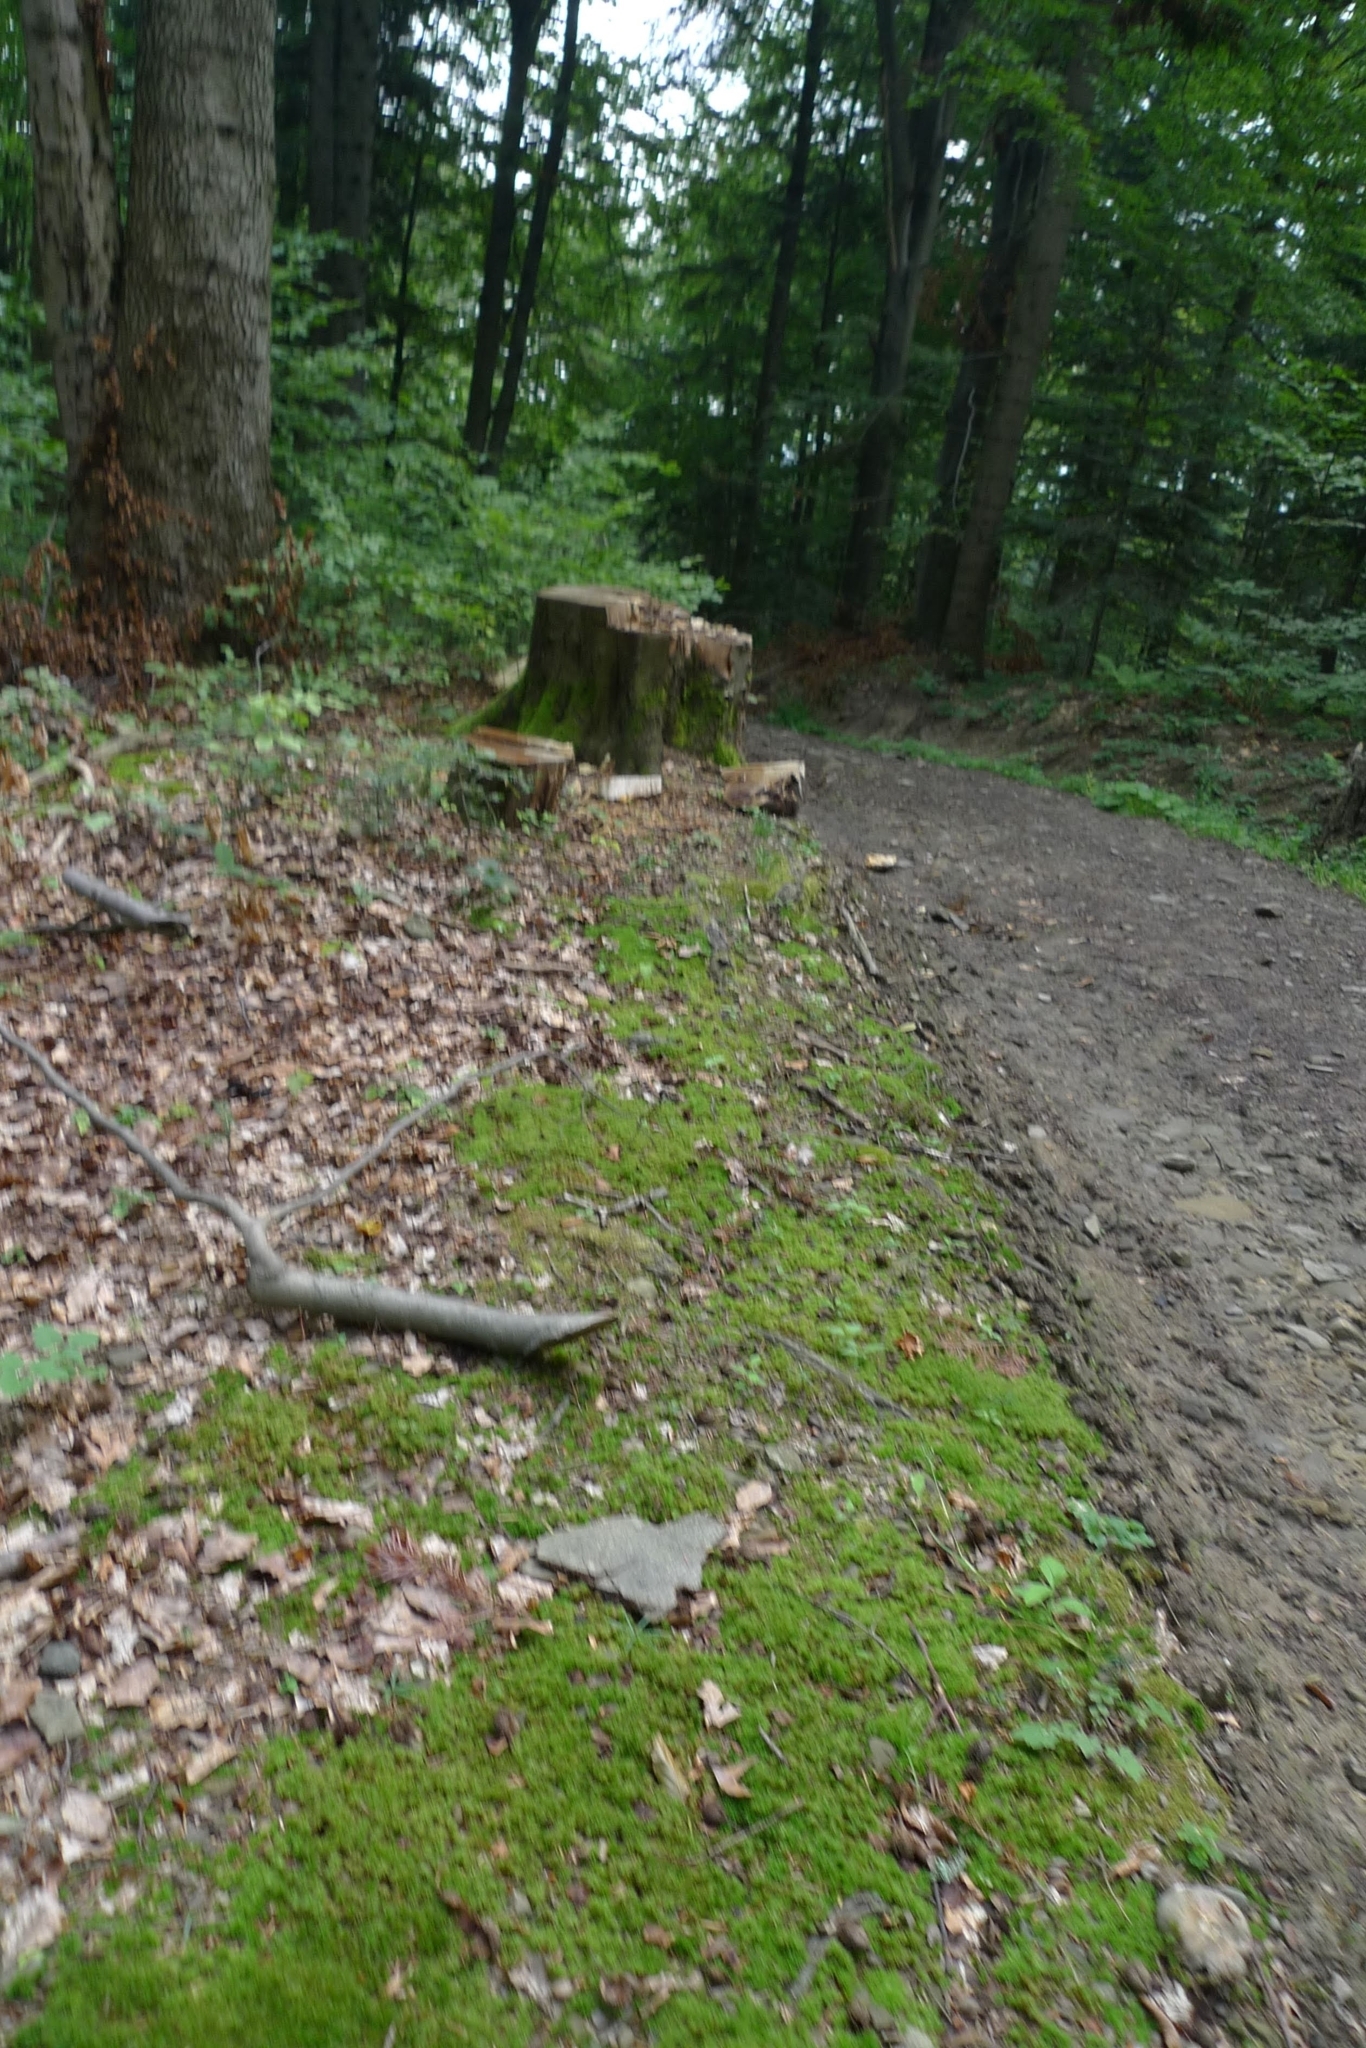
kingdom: Plantae
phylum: Bryophyta
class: Polytrichopsida
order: Polytrichales
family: Polytrichaceae
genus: Atrichum
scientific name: Atrichum undulatum
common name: Common smoothcap
